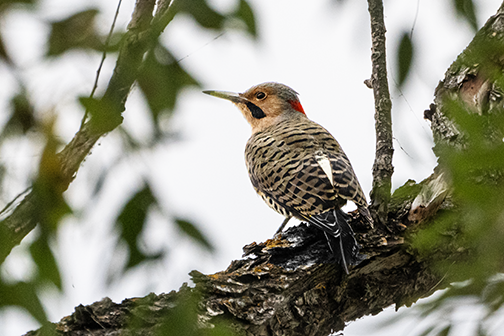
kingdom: Animalia
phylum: Chordata
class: Aves
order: Piciformes
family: Picidae
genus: Colaptes
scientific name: Colaptes auratus
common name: Northern flicker
